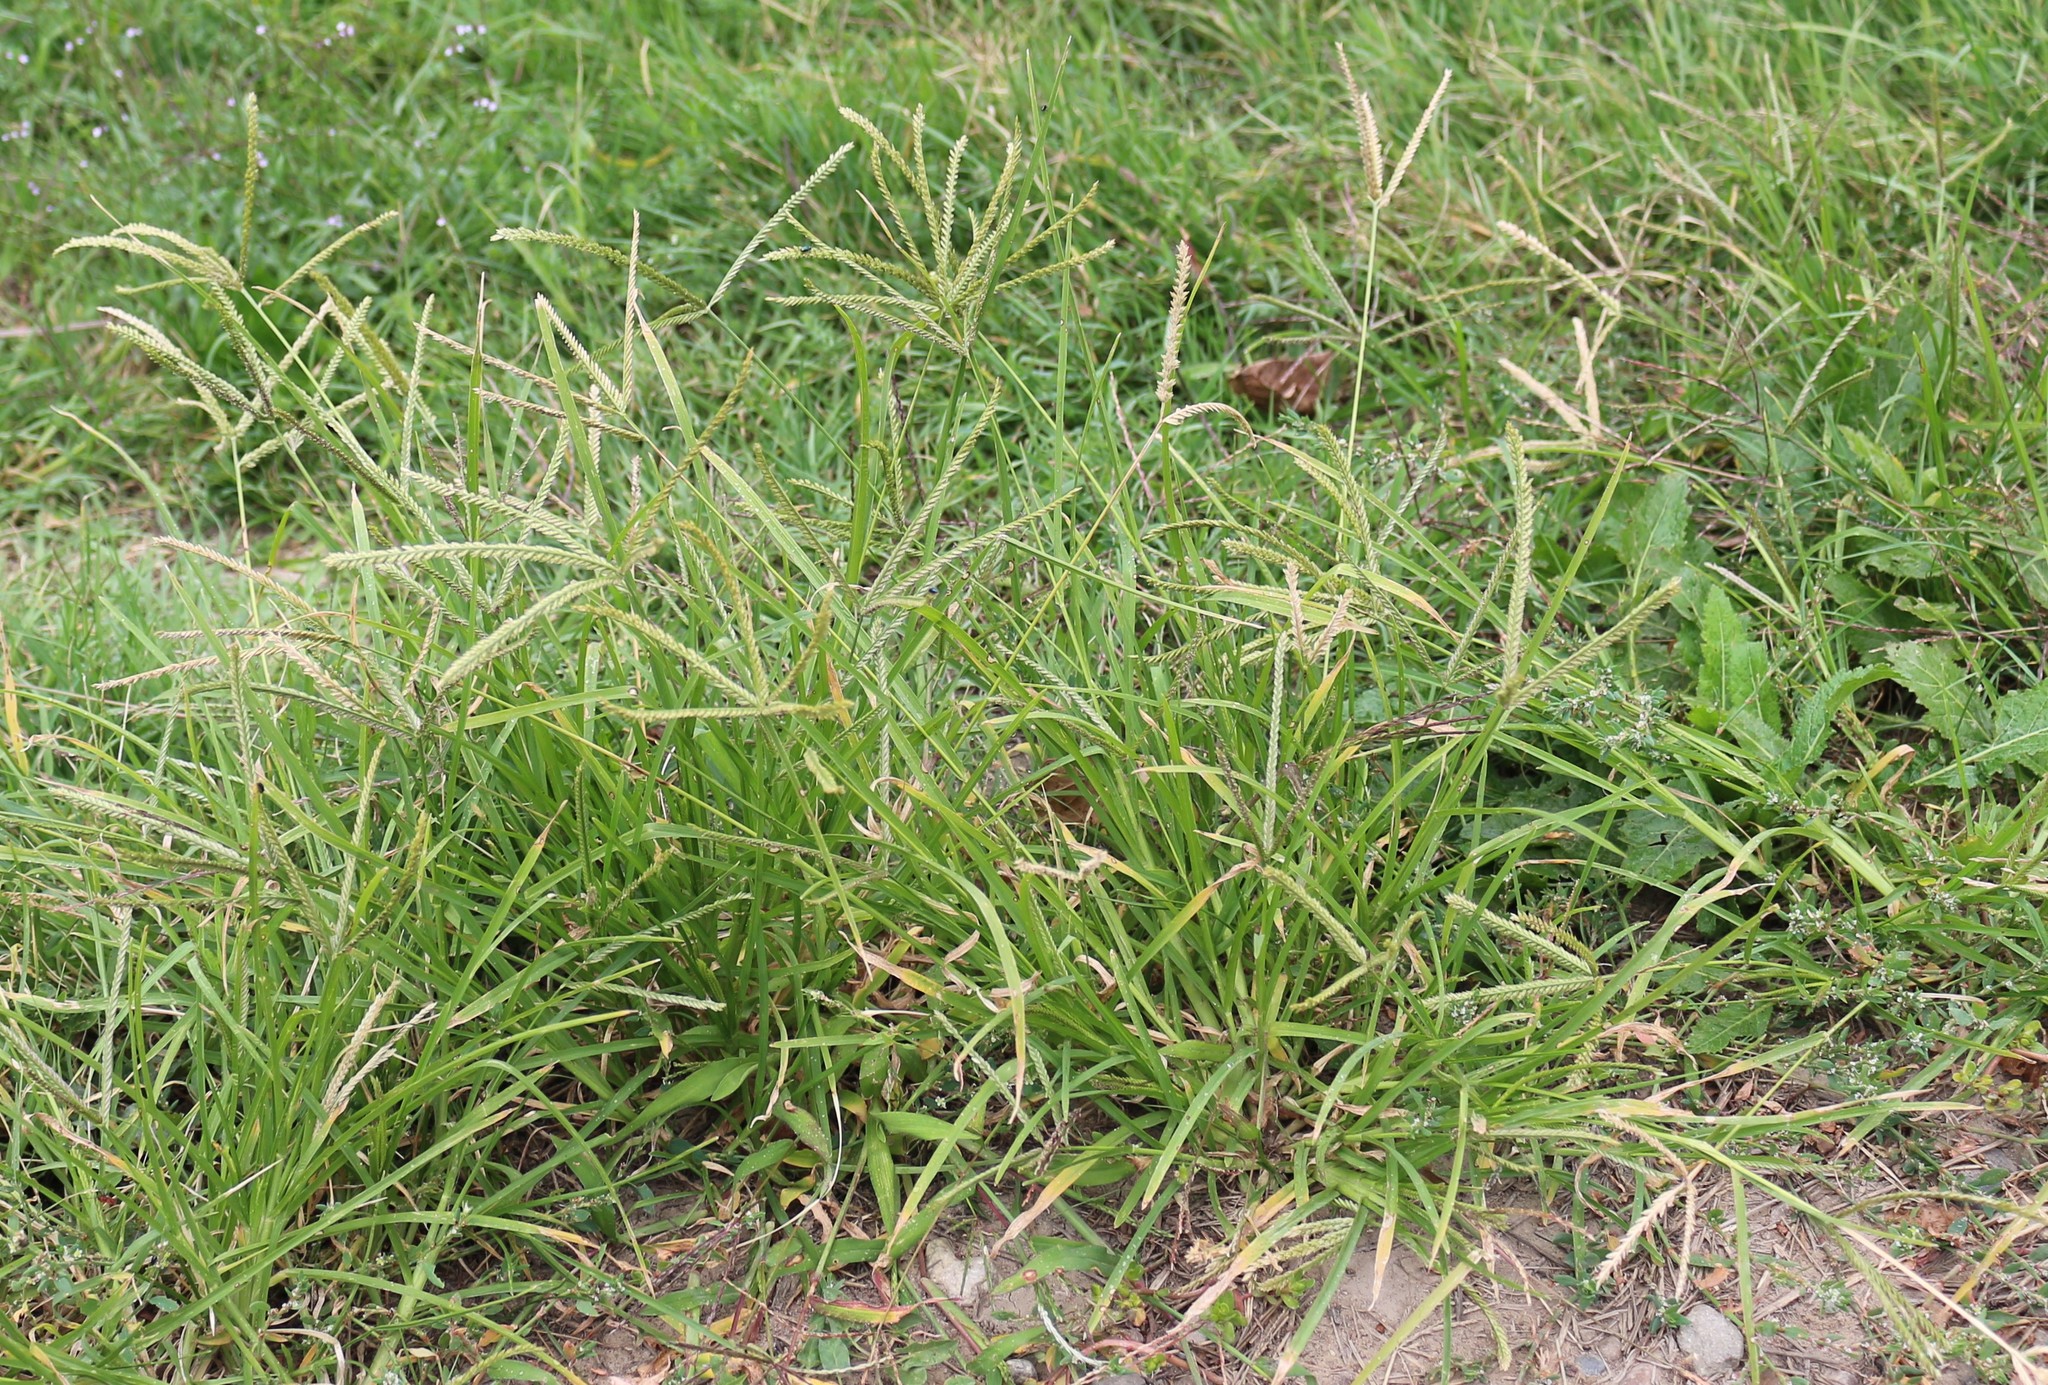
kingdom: Plantae
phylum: Tracheophyta
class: Liliopsida
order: Poales
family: Poaceae
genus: Eleusine
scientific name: Eleusine indica
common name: Yard-grass
